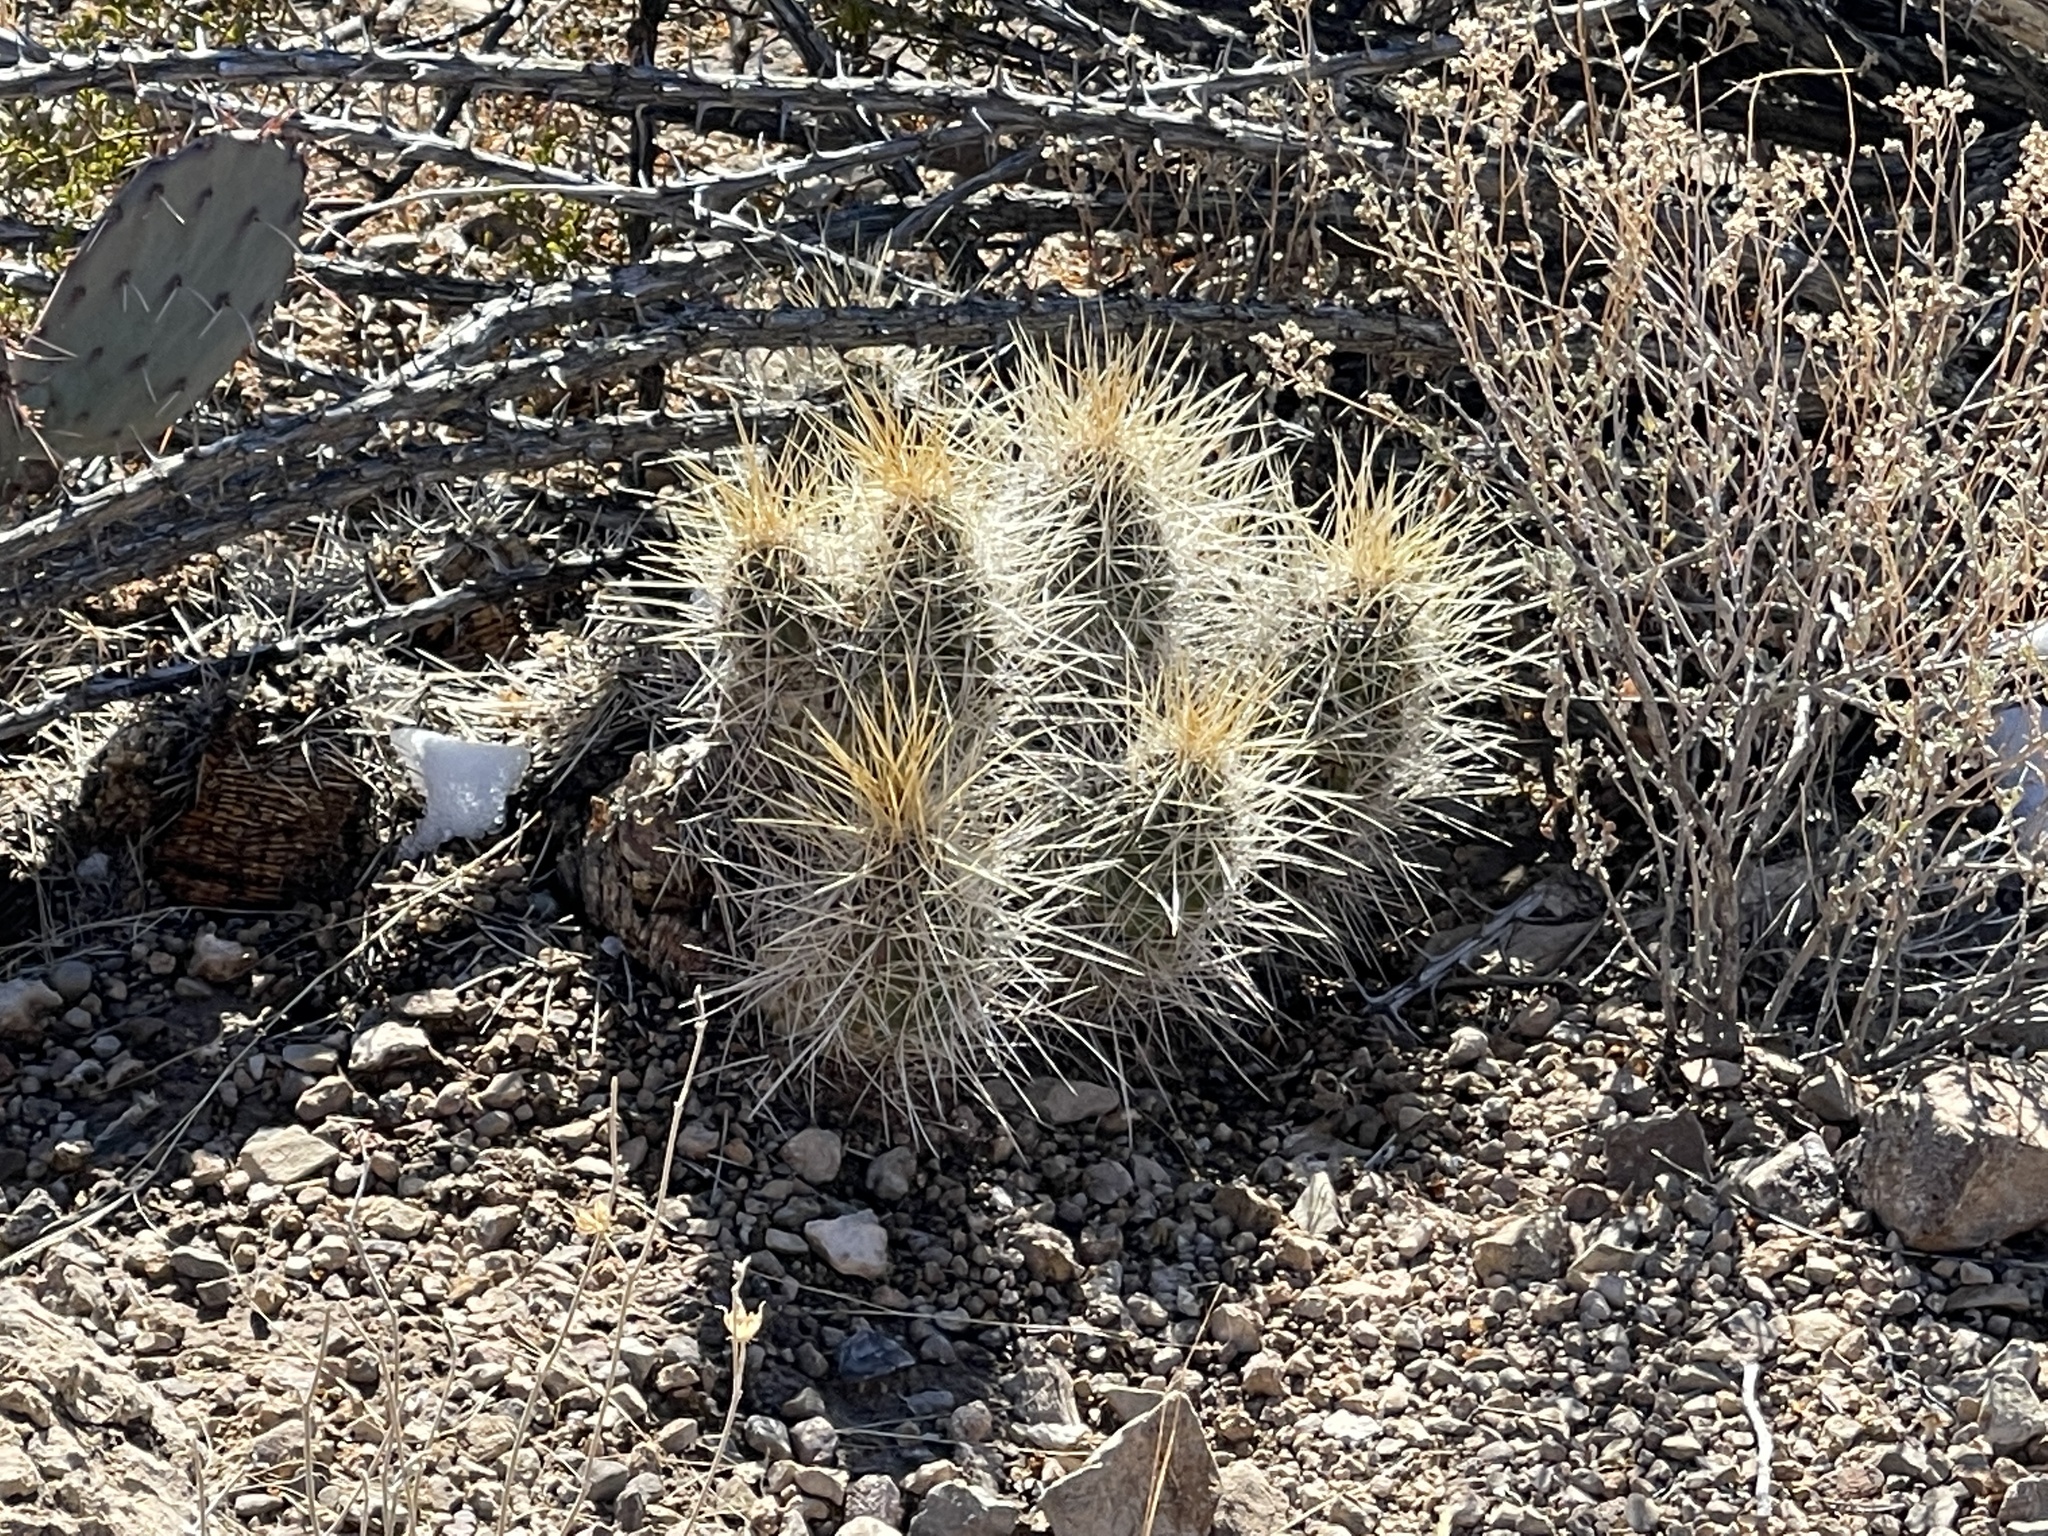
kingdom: Plantae
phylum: Tracheophyta
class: Magnoliopsida
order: Caryophyllales
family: Cactaceae
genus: Echinocereus
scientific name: Echinocereus stramineus
